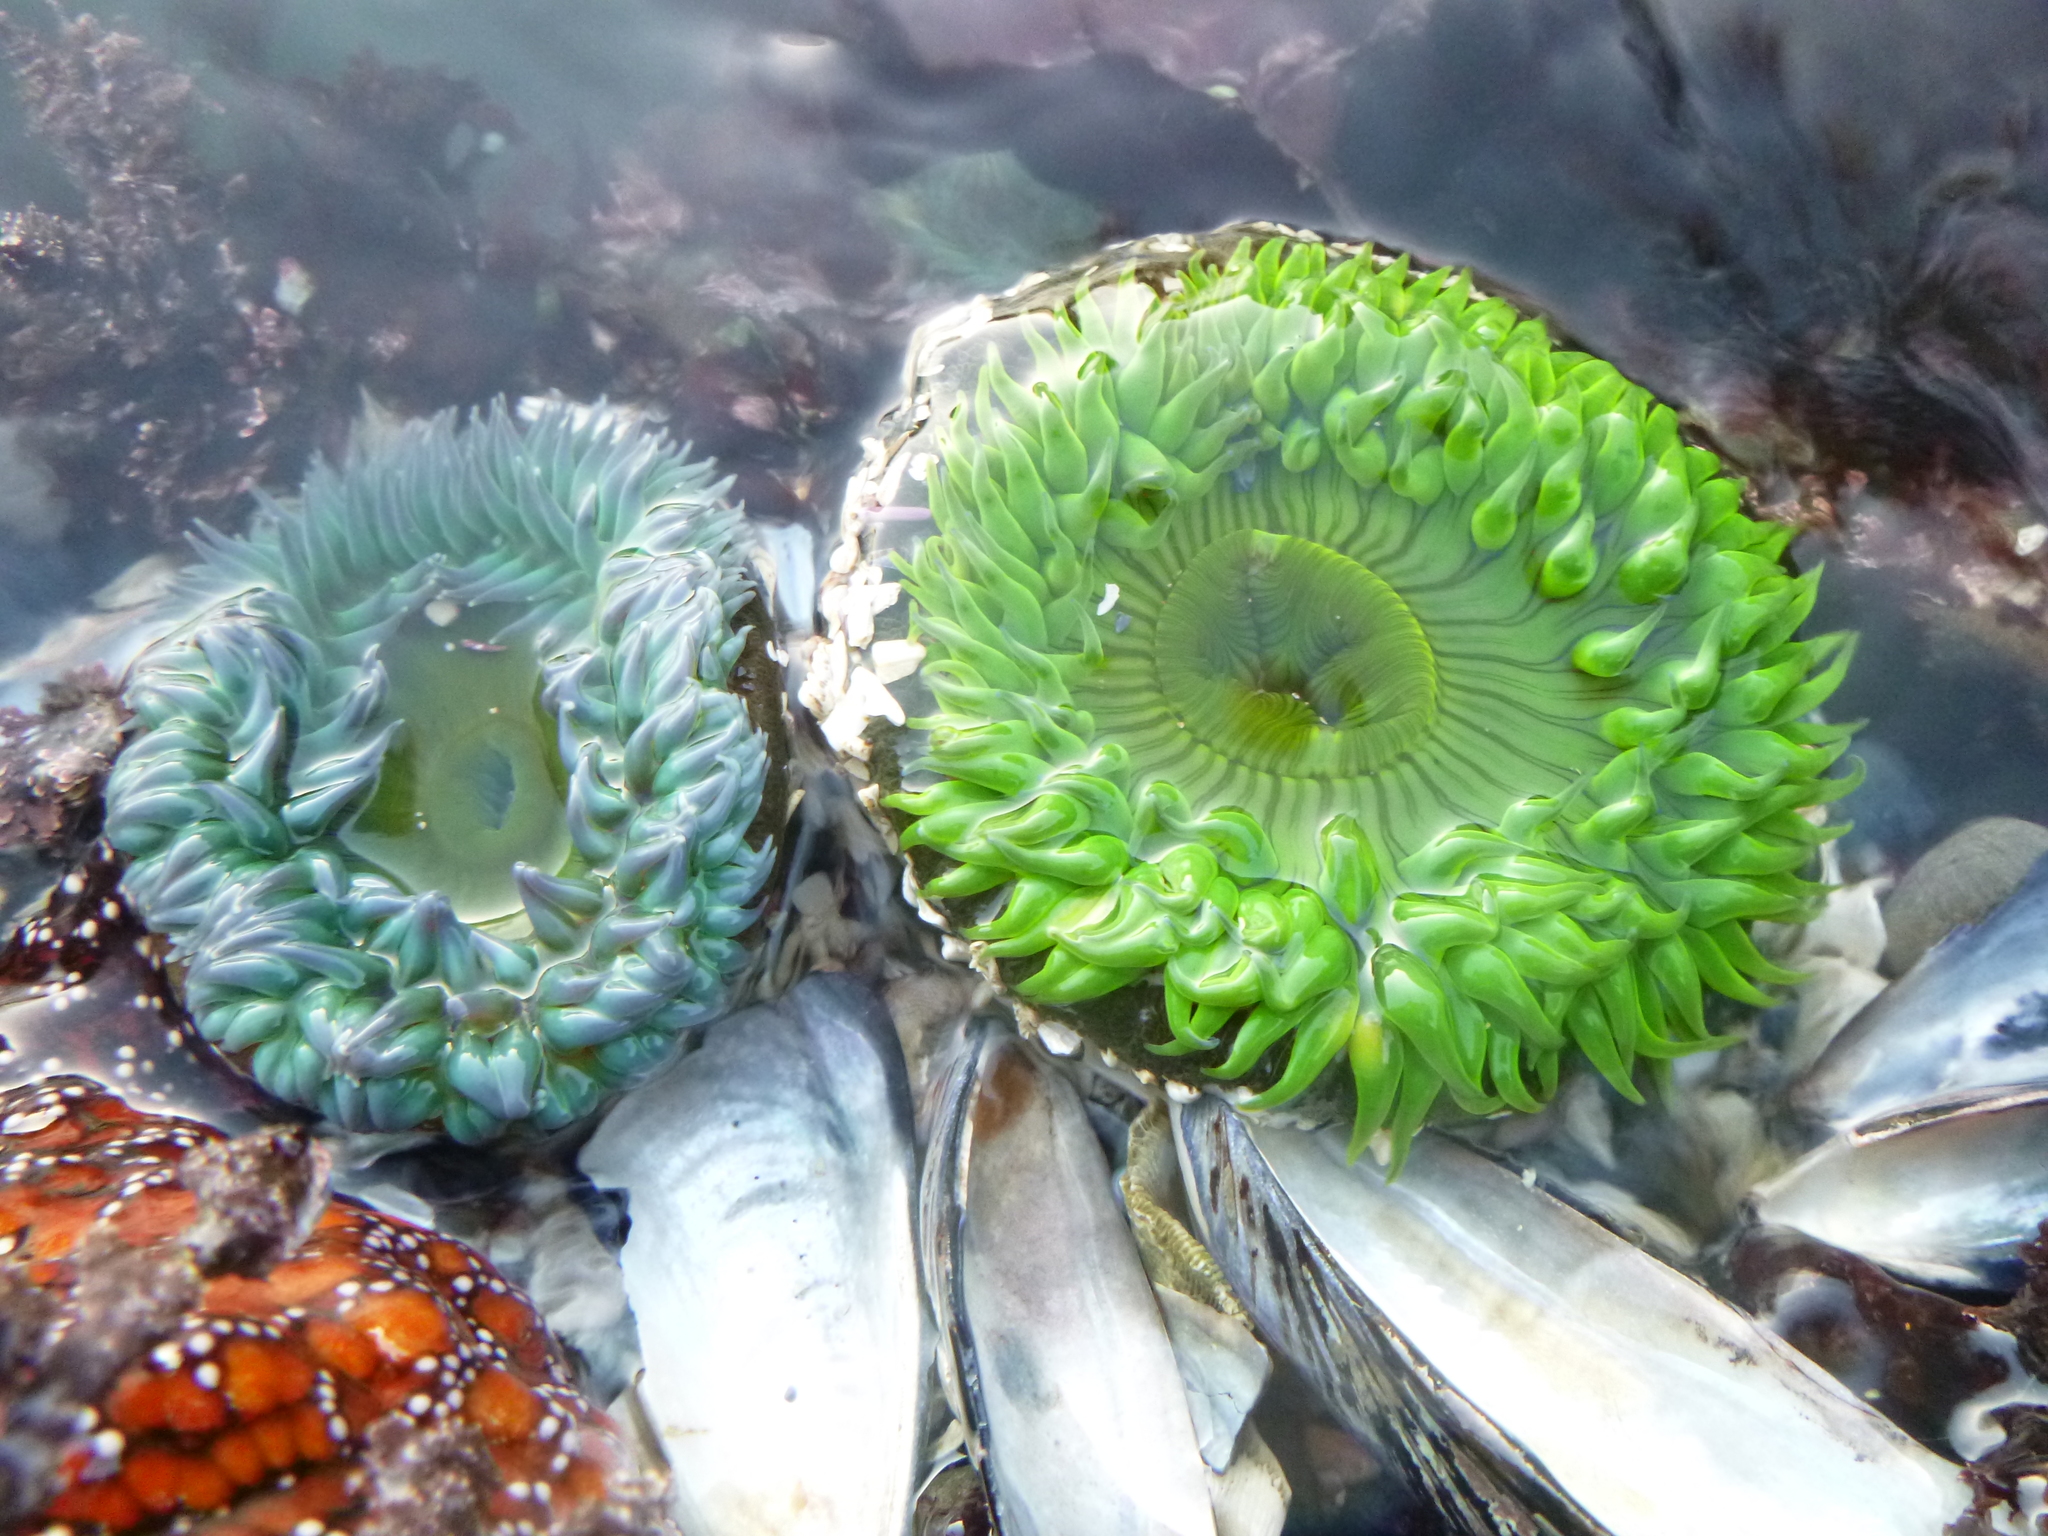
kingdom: Animalia
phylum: Cnidaria
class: Anthozoa
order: Actiniaria
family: Actiniidae
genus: Anthopleura
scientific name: Anthopleura sola
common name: Sun anemone
